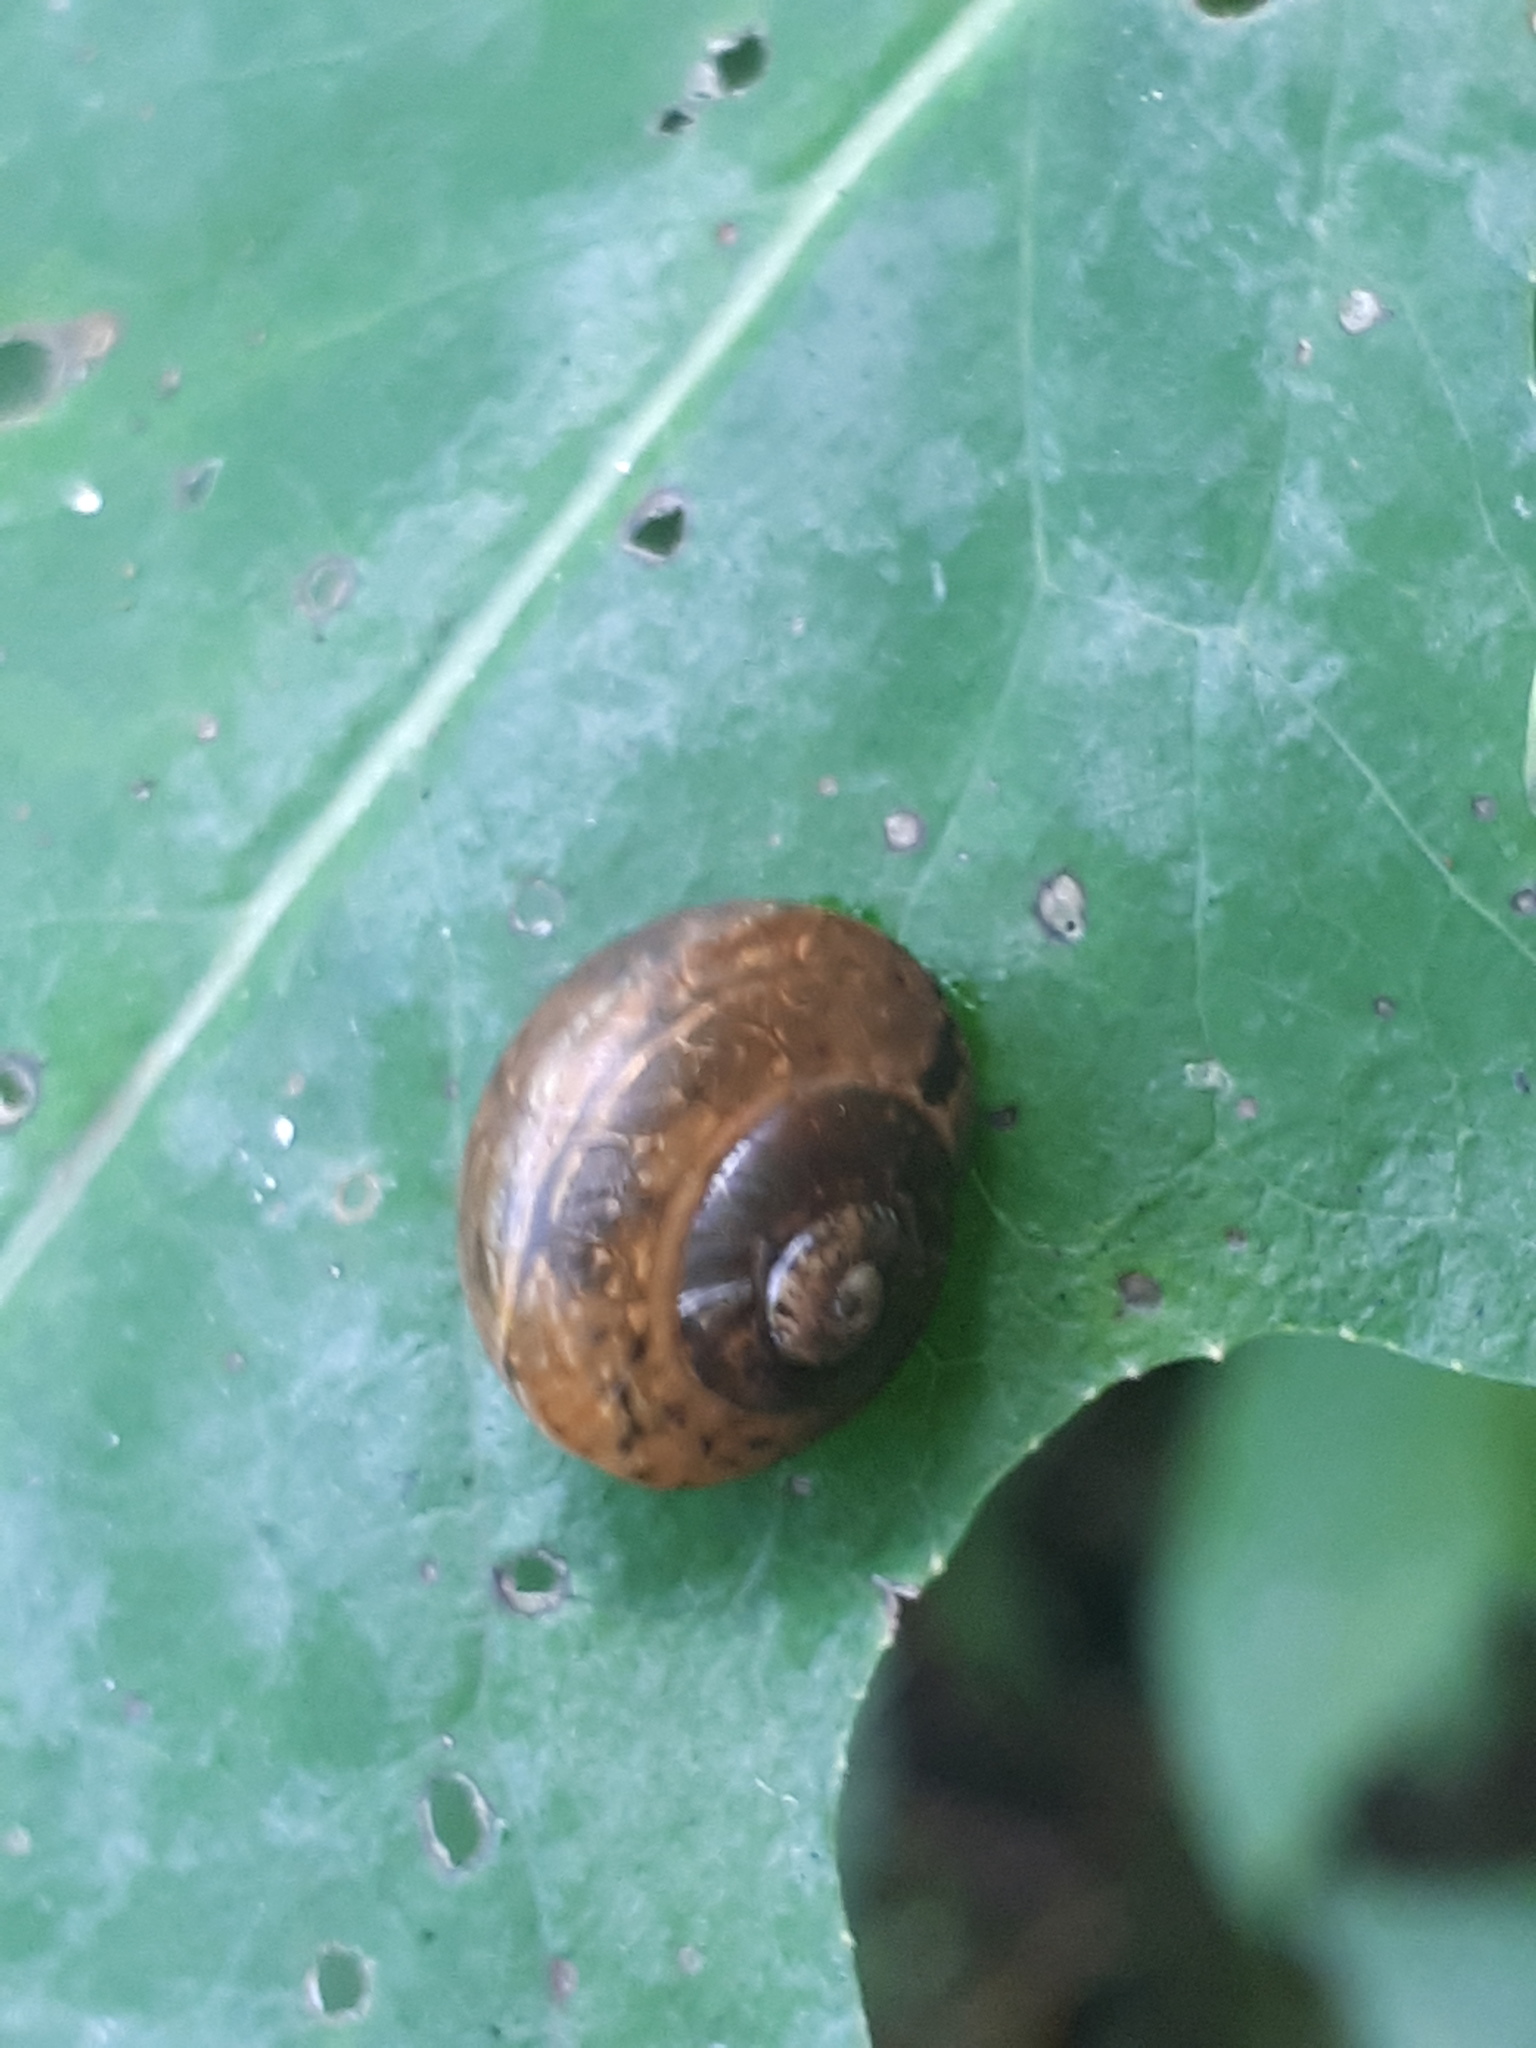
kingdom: Animalia
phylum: Mollusca
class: Gastropoda
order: Stylommatophora
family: Helicidae
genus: Arianta
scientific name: Arianta arbustorum
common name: Copse snail
